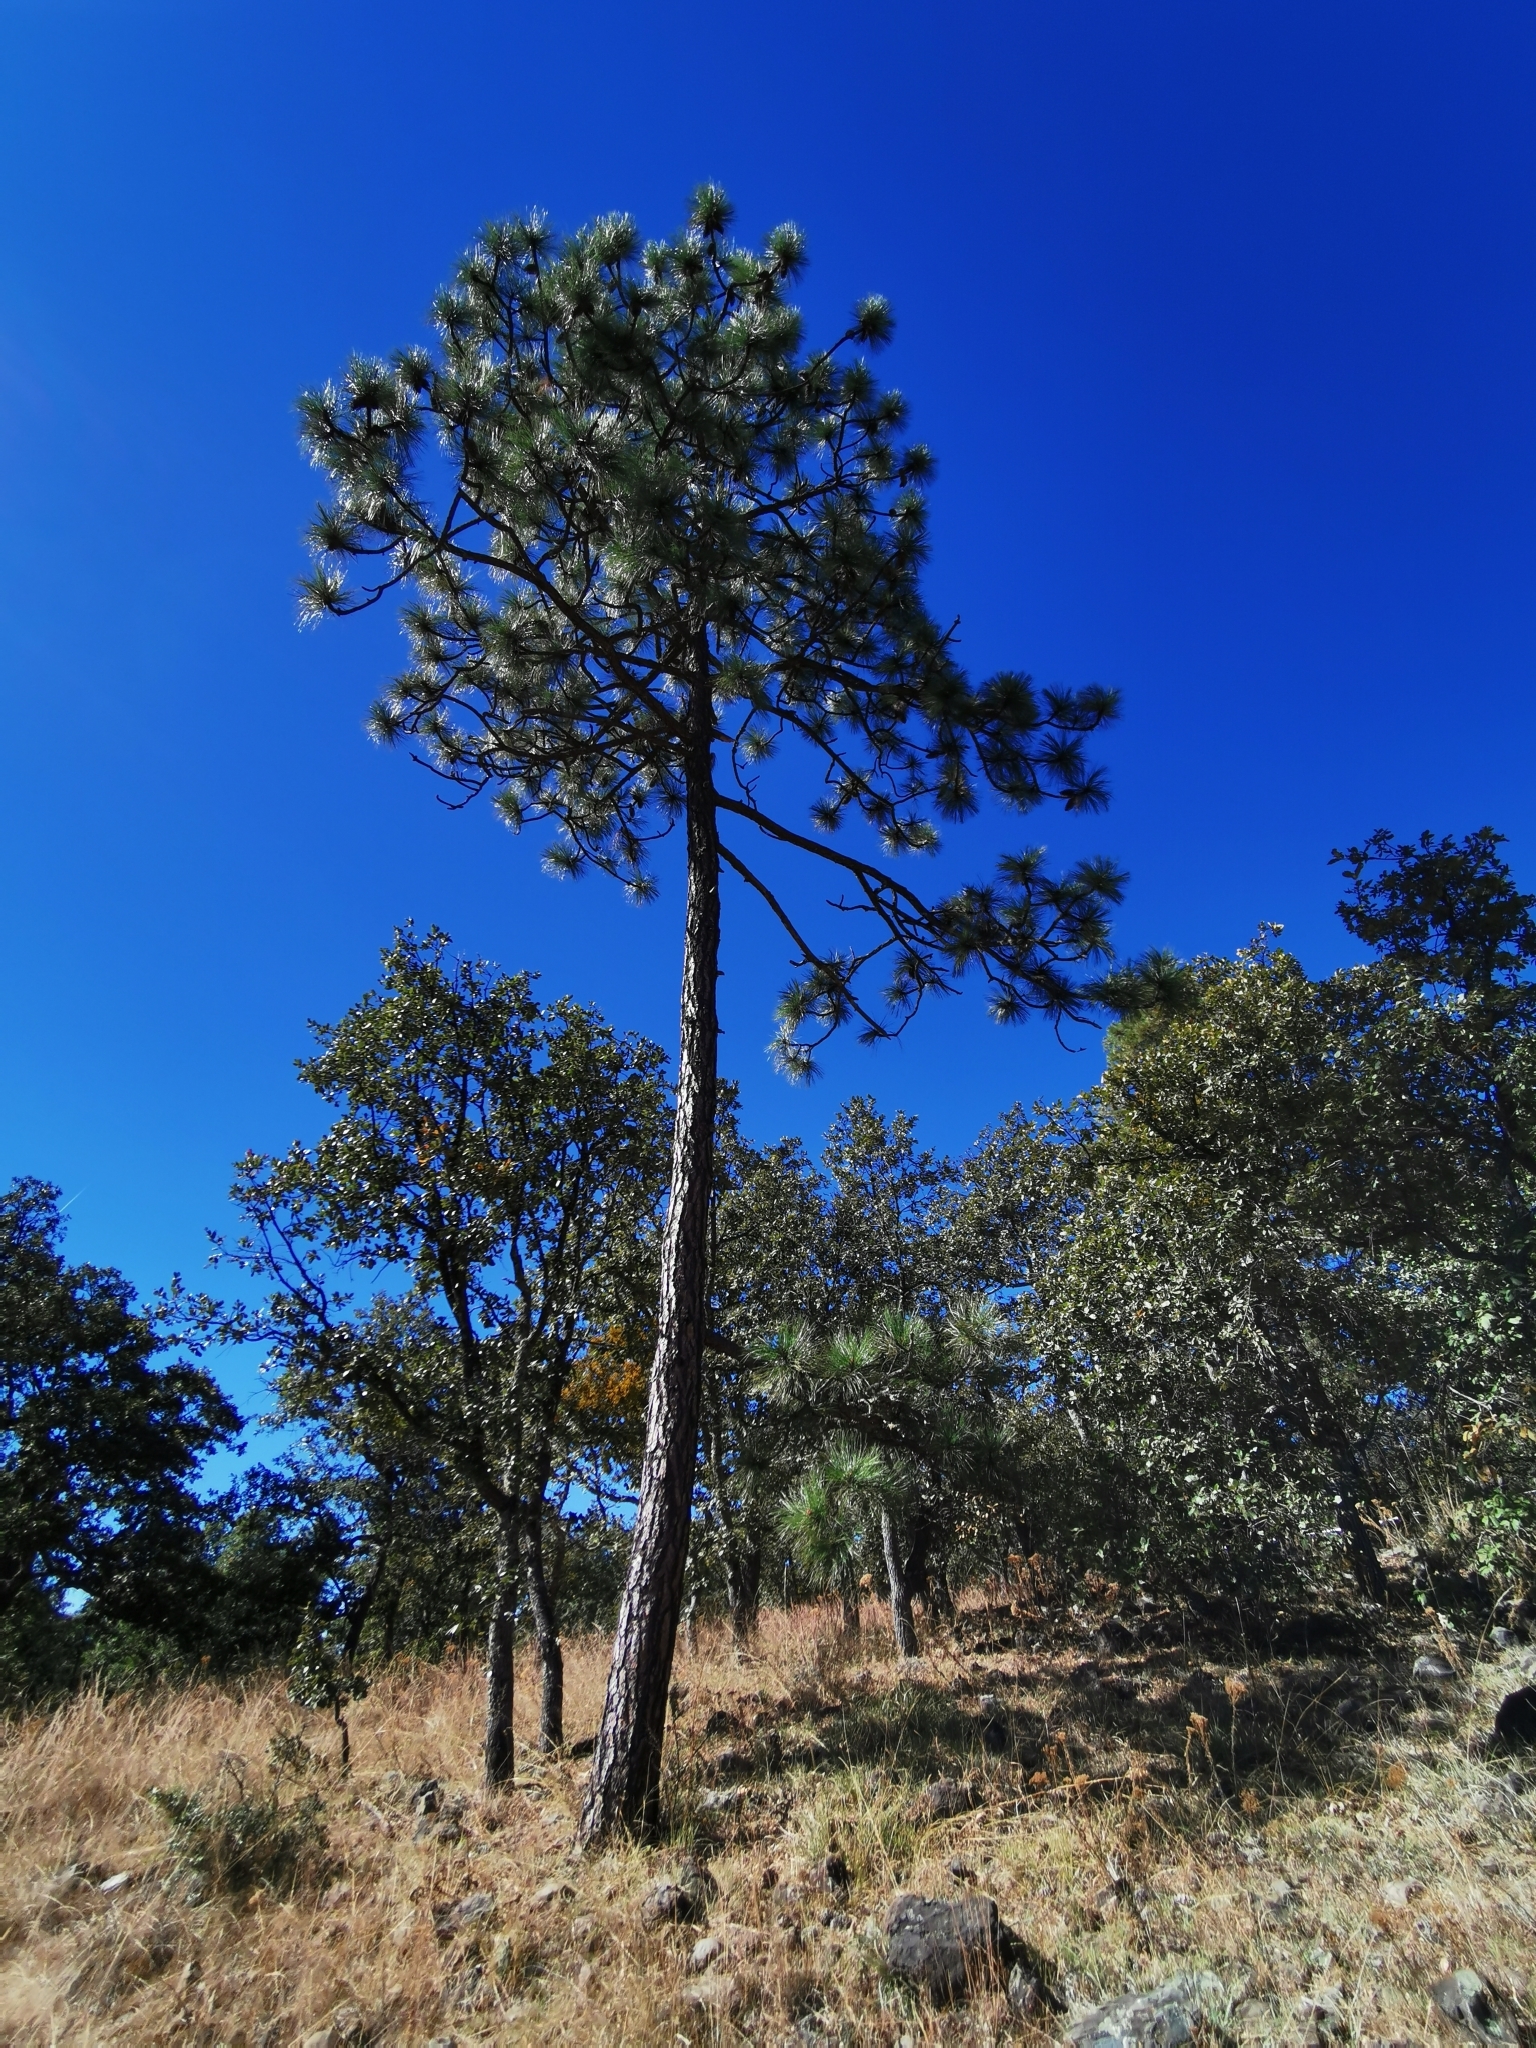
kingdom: Plantae
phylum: Tracheophyta
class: Pinopsida
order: Pinales
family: Pinaceae
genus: Pinus
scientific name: Pinus engelmannii
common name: Apache pine
